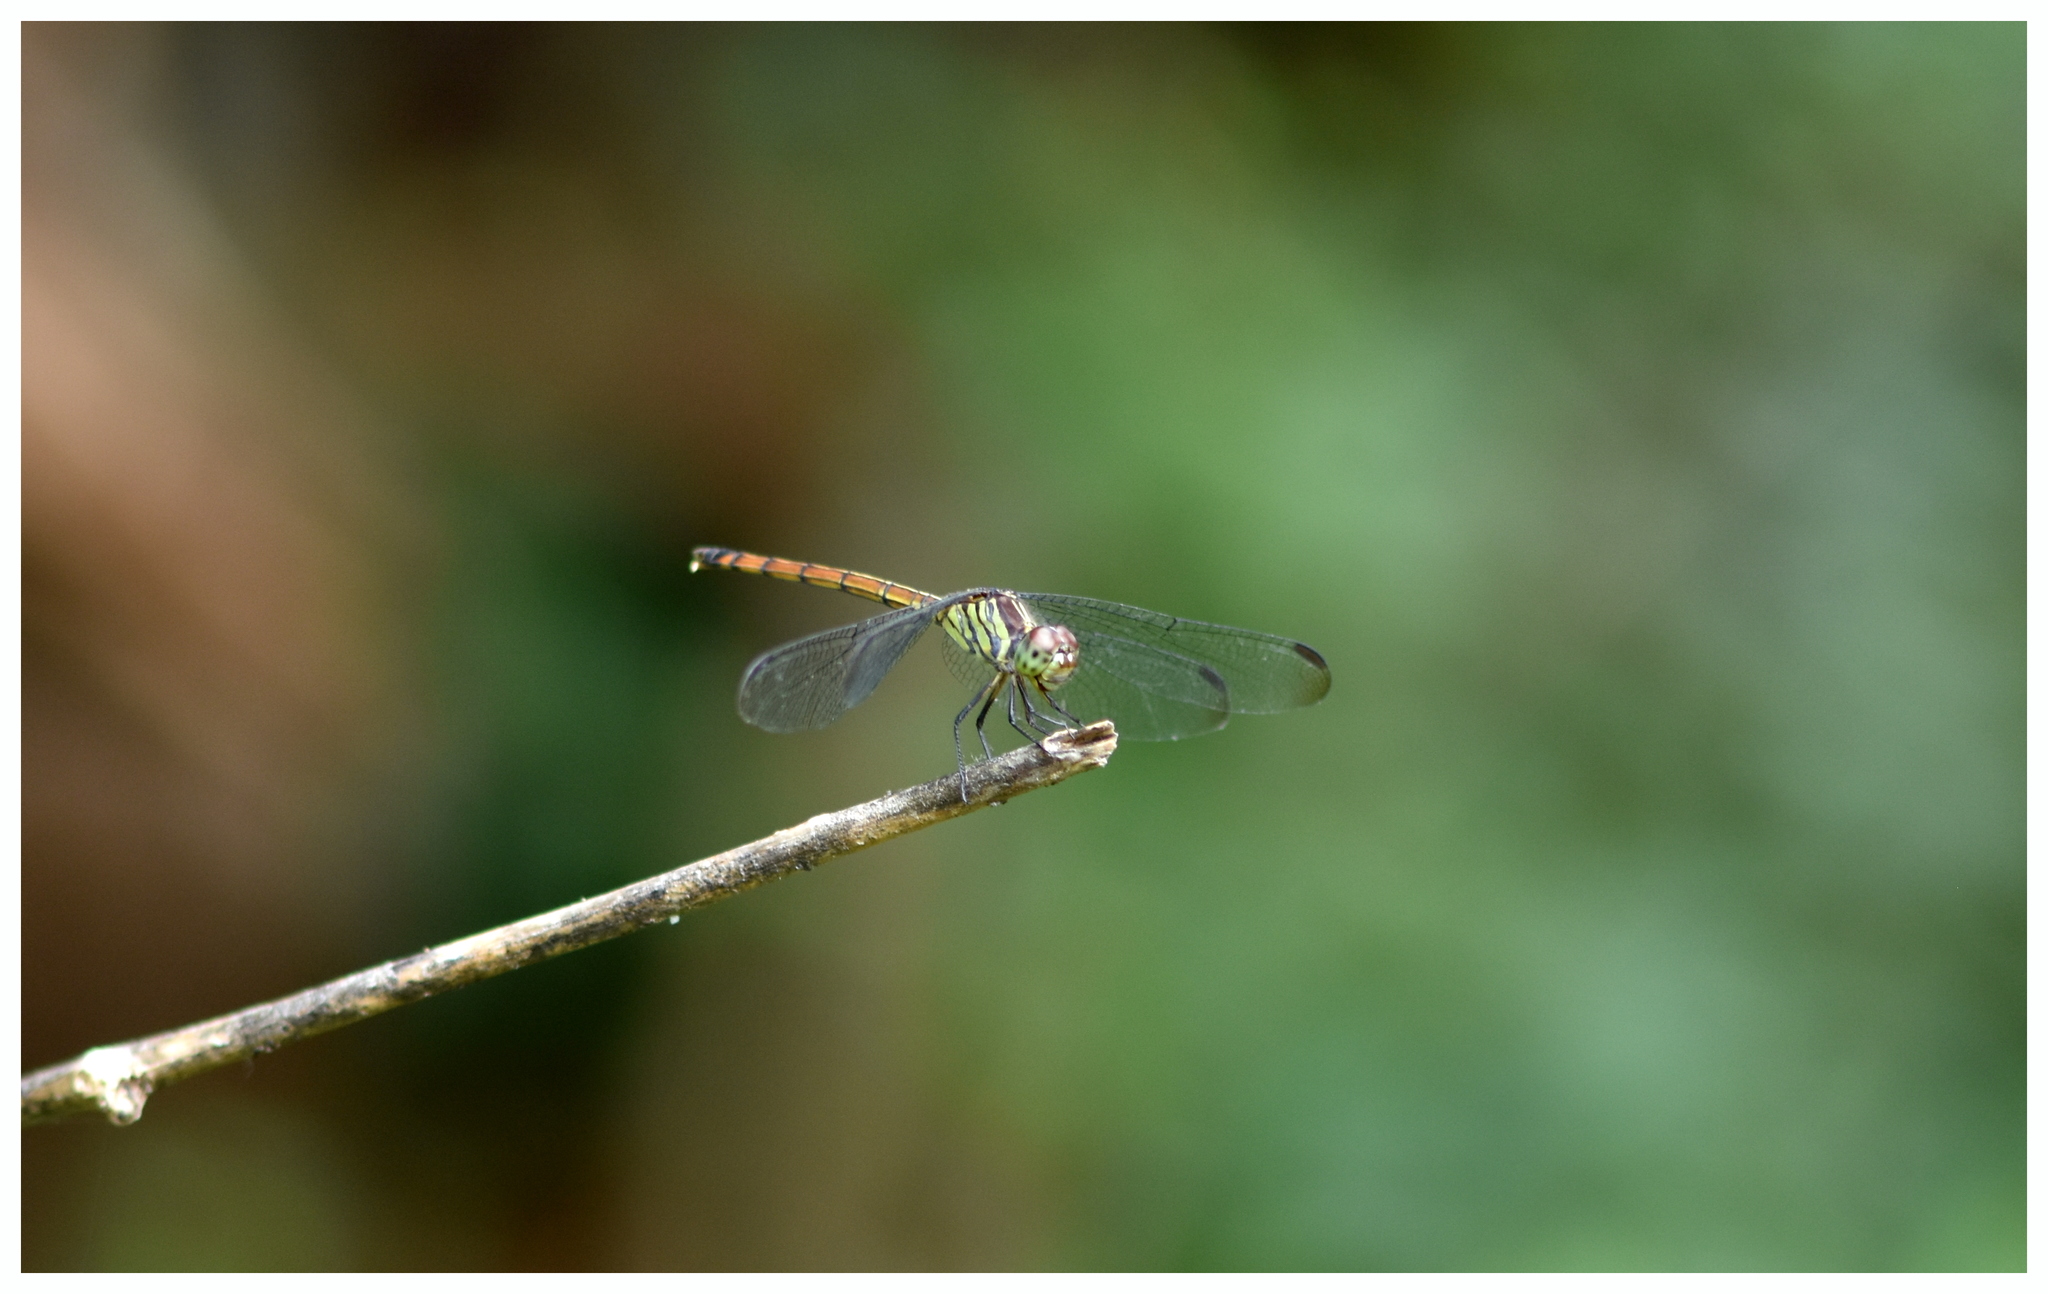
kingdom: Animalia
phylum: Arthropoda
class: Insecta
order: Odonata
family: Libellulidae
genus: Lathrecista
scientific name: Lathrecista asiatica
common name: Scarlet grenadier
